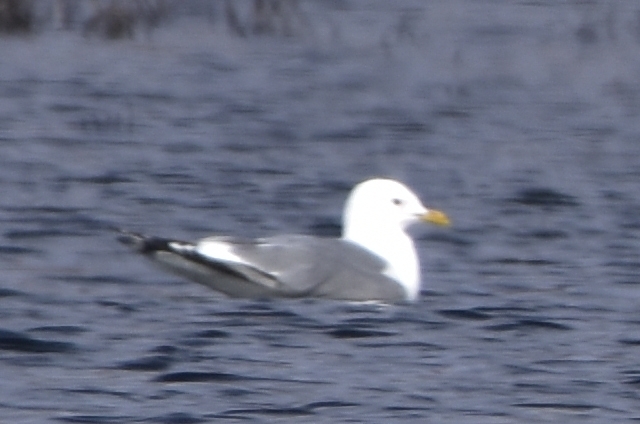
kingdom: Animalia
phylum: Chordata
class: Aves
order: Charadriiformes
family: Laridae
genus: Larus
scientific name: Larus canus
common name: Mew gull
